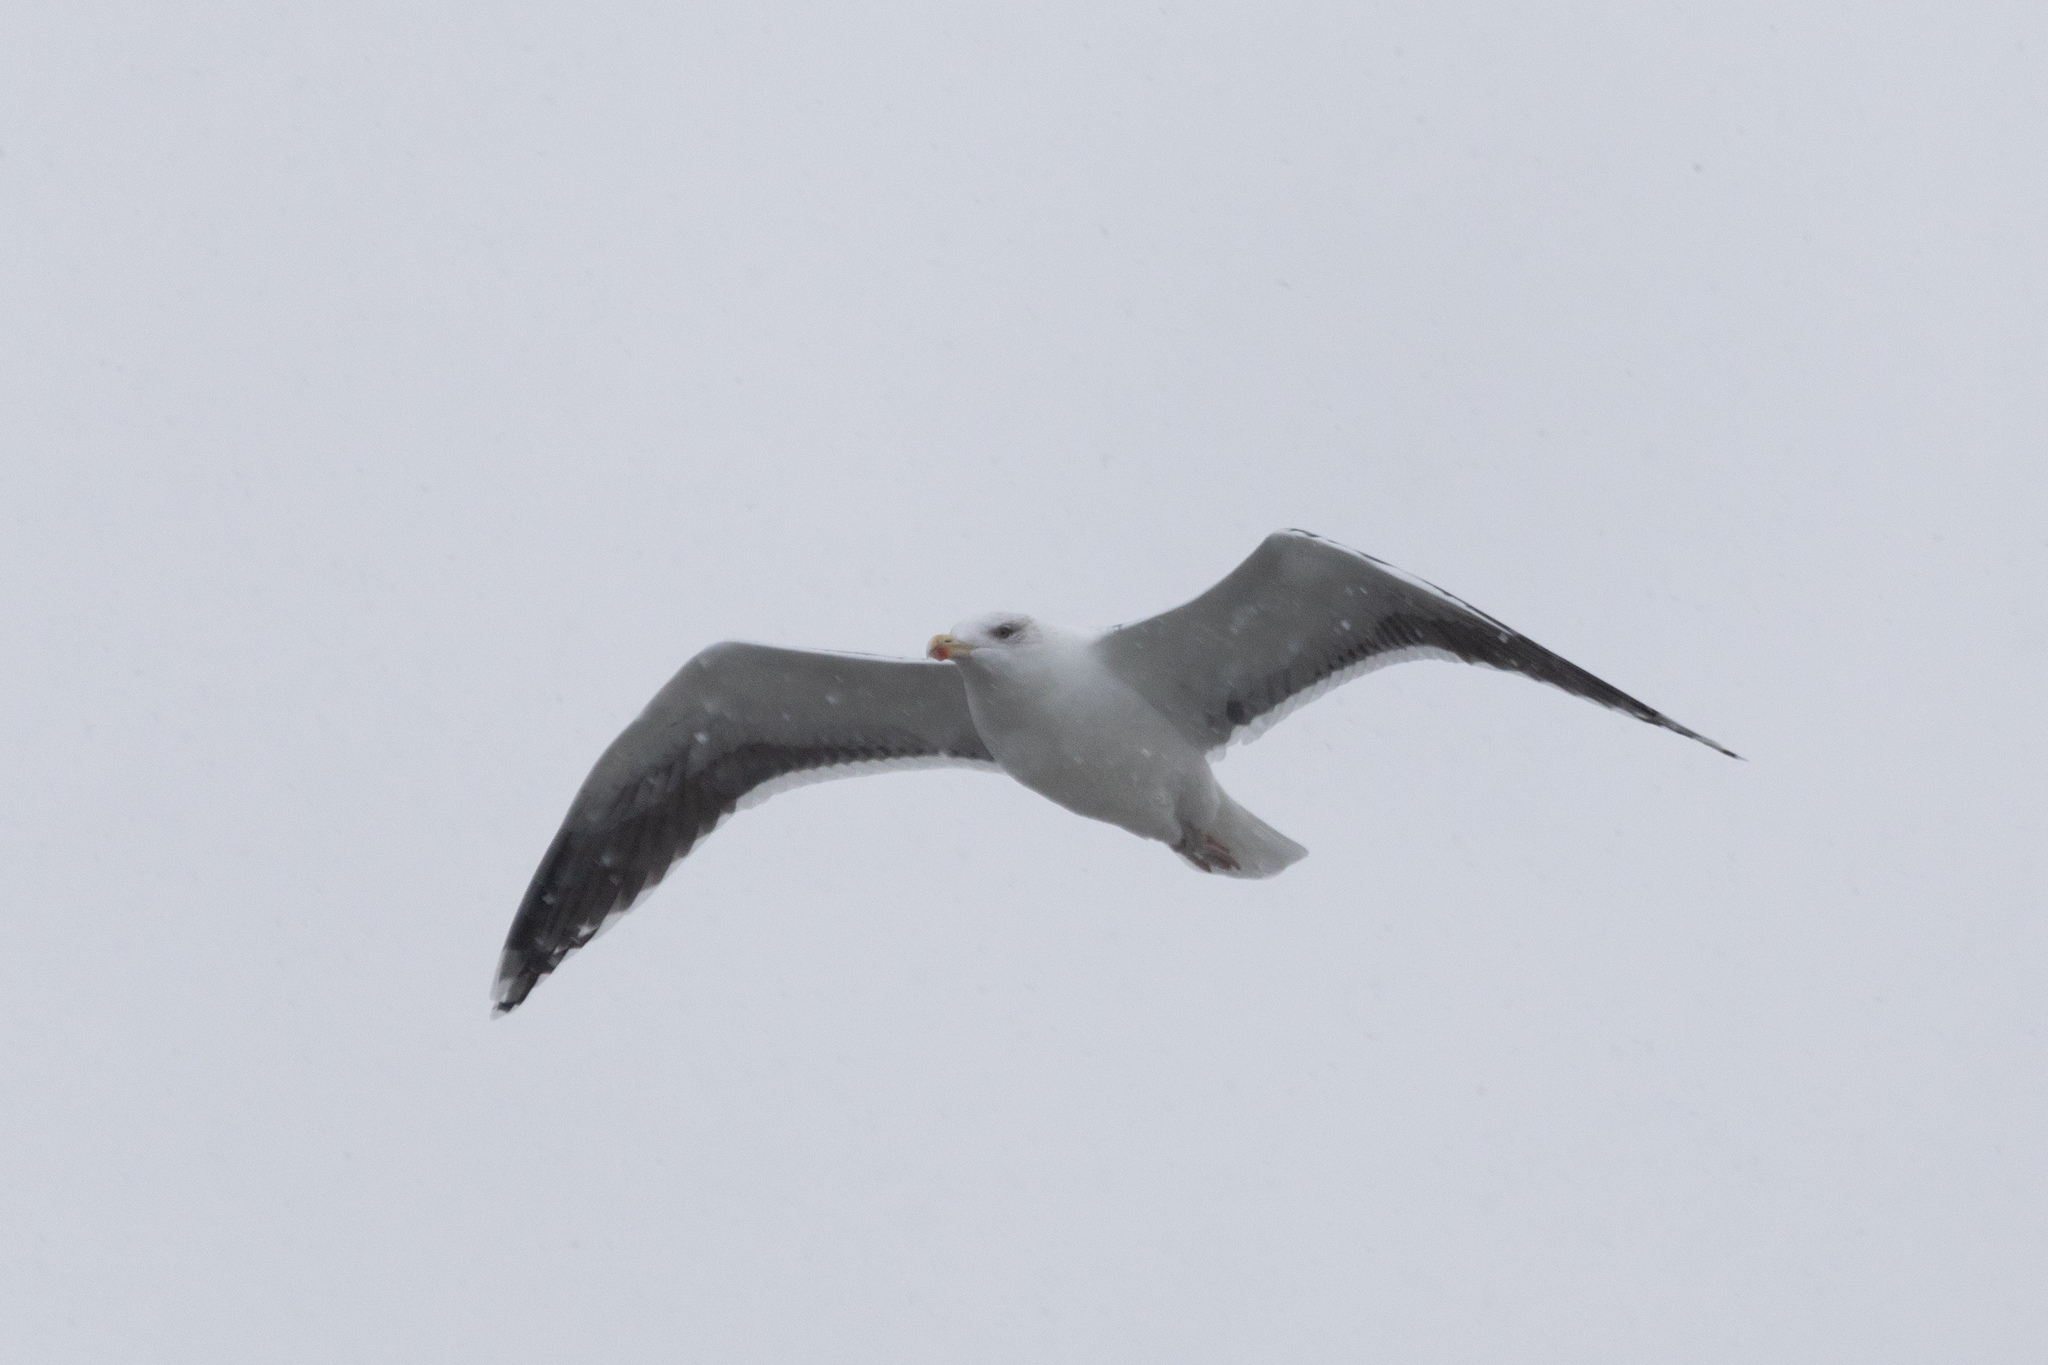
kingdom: Animalia
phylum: Chordata
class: Aves
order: Charadriiformes
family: Laridae
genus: Larus
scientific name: Larus marinus
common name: Great black-backed gull
